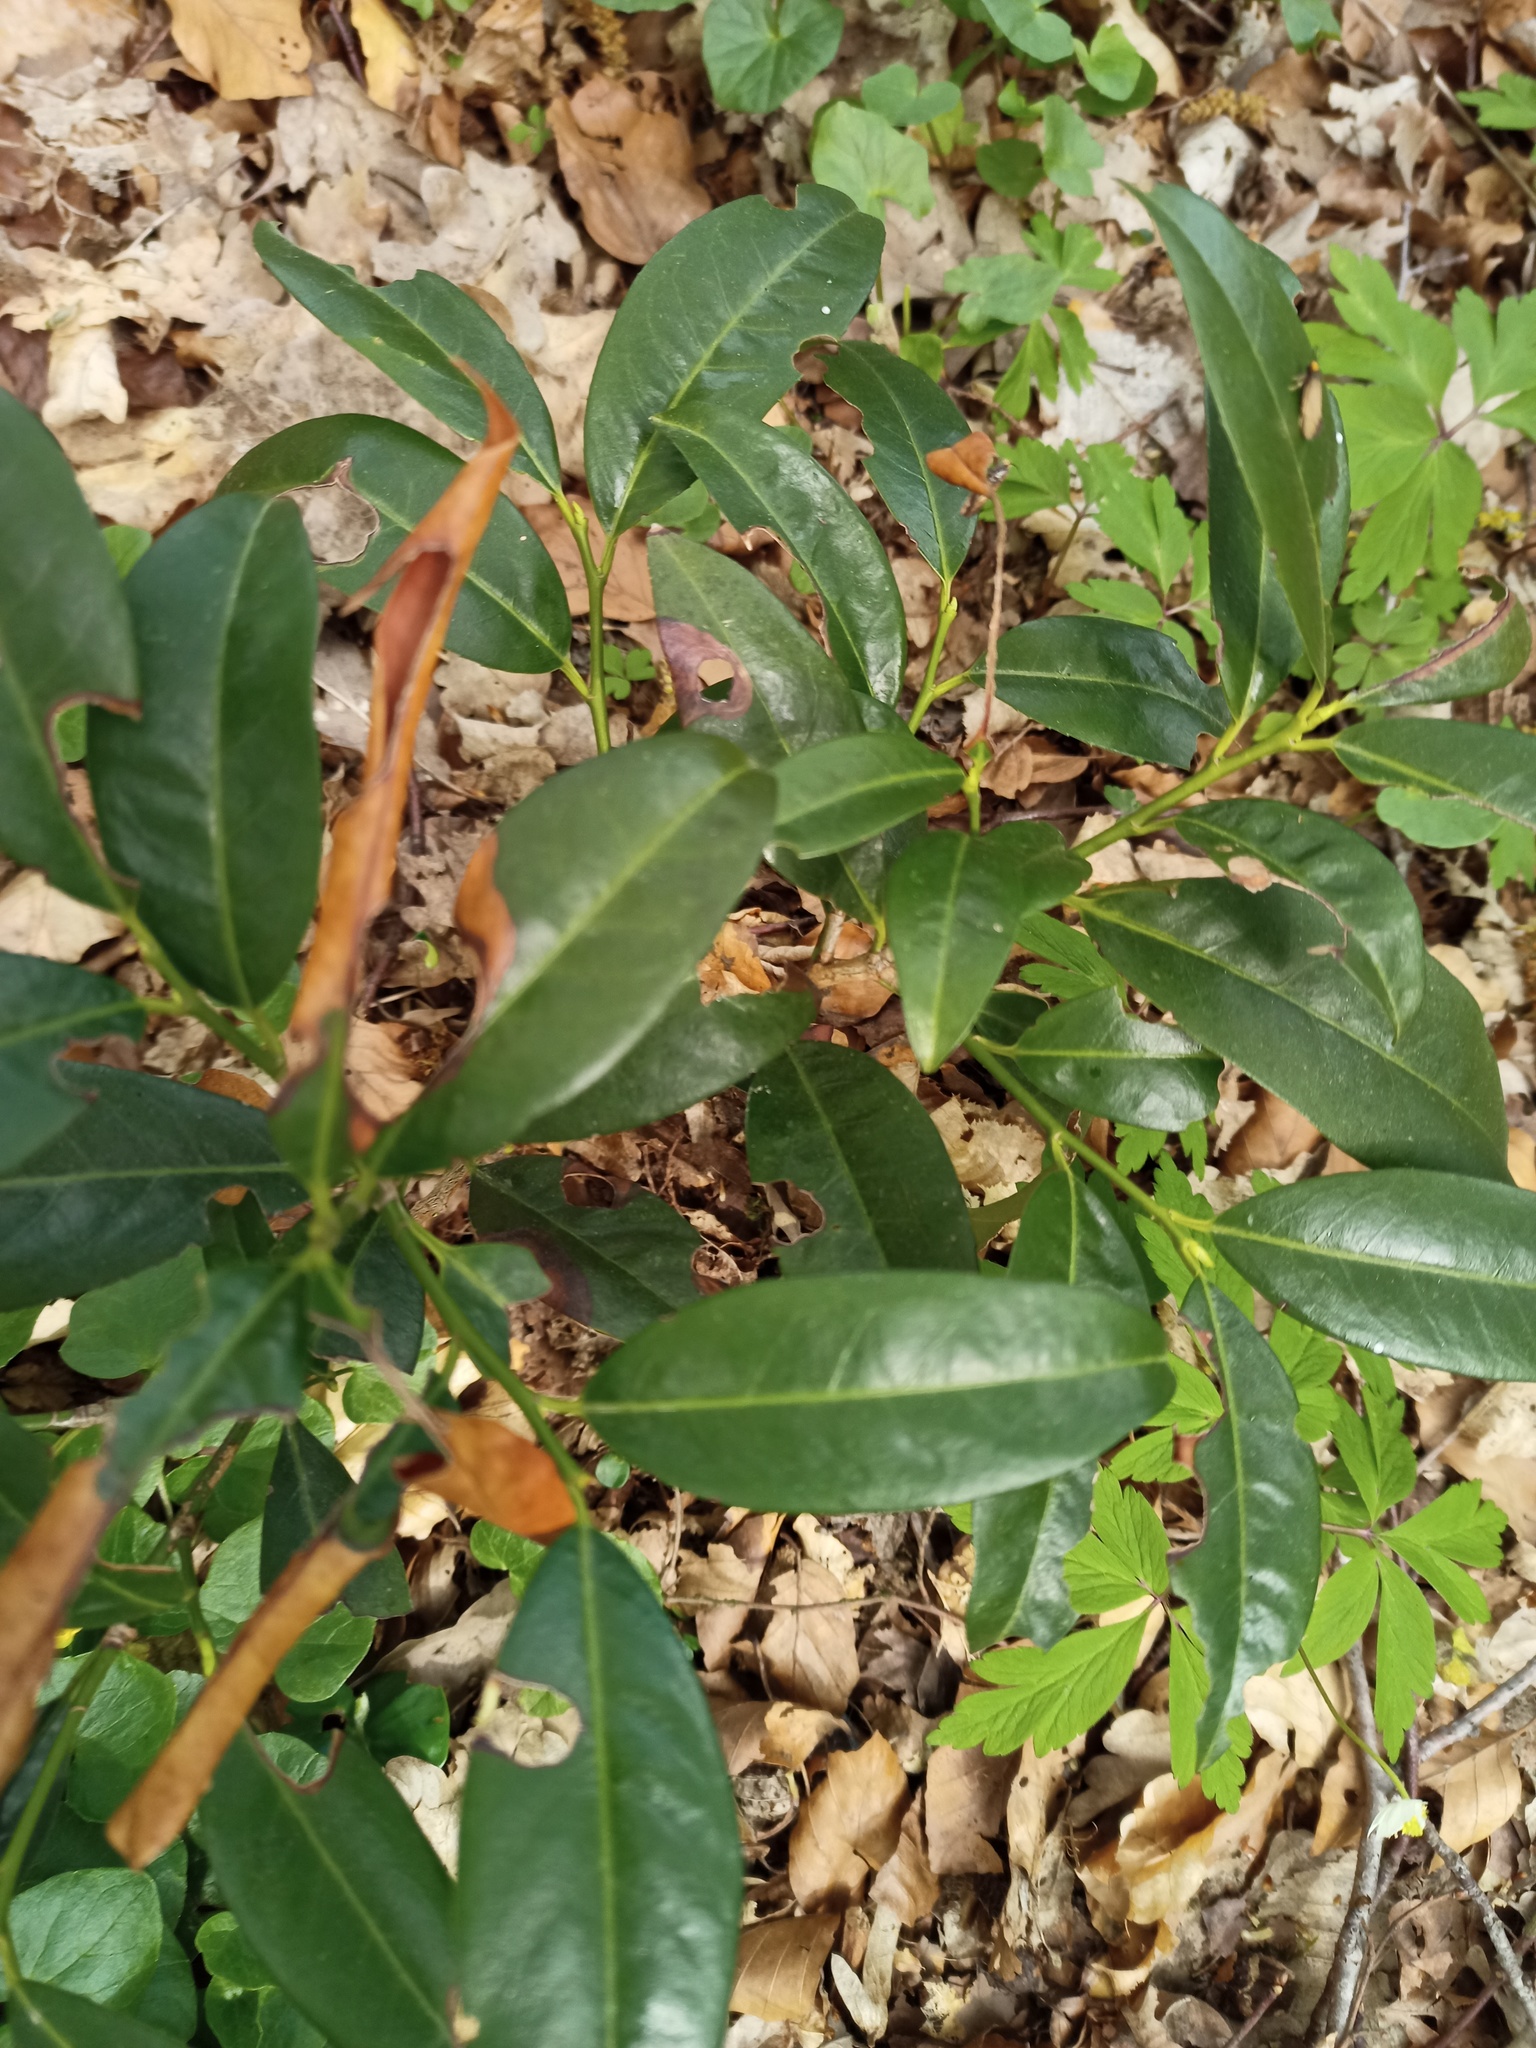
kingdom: Plantae
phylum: Tracheophyta
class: Magnoliopsida
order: Rosales
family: Rosaceae
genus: Prunus
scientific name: Prunus laurocerasus
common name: Cherry laurel
